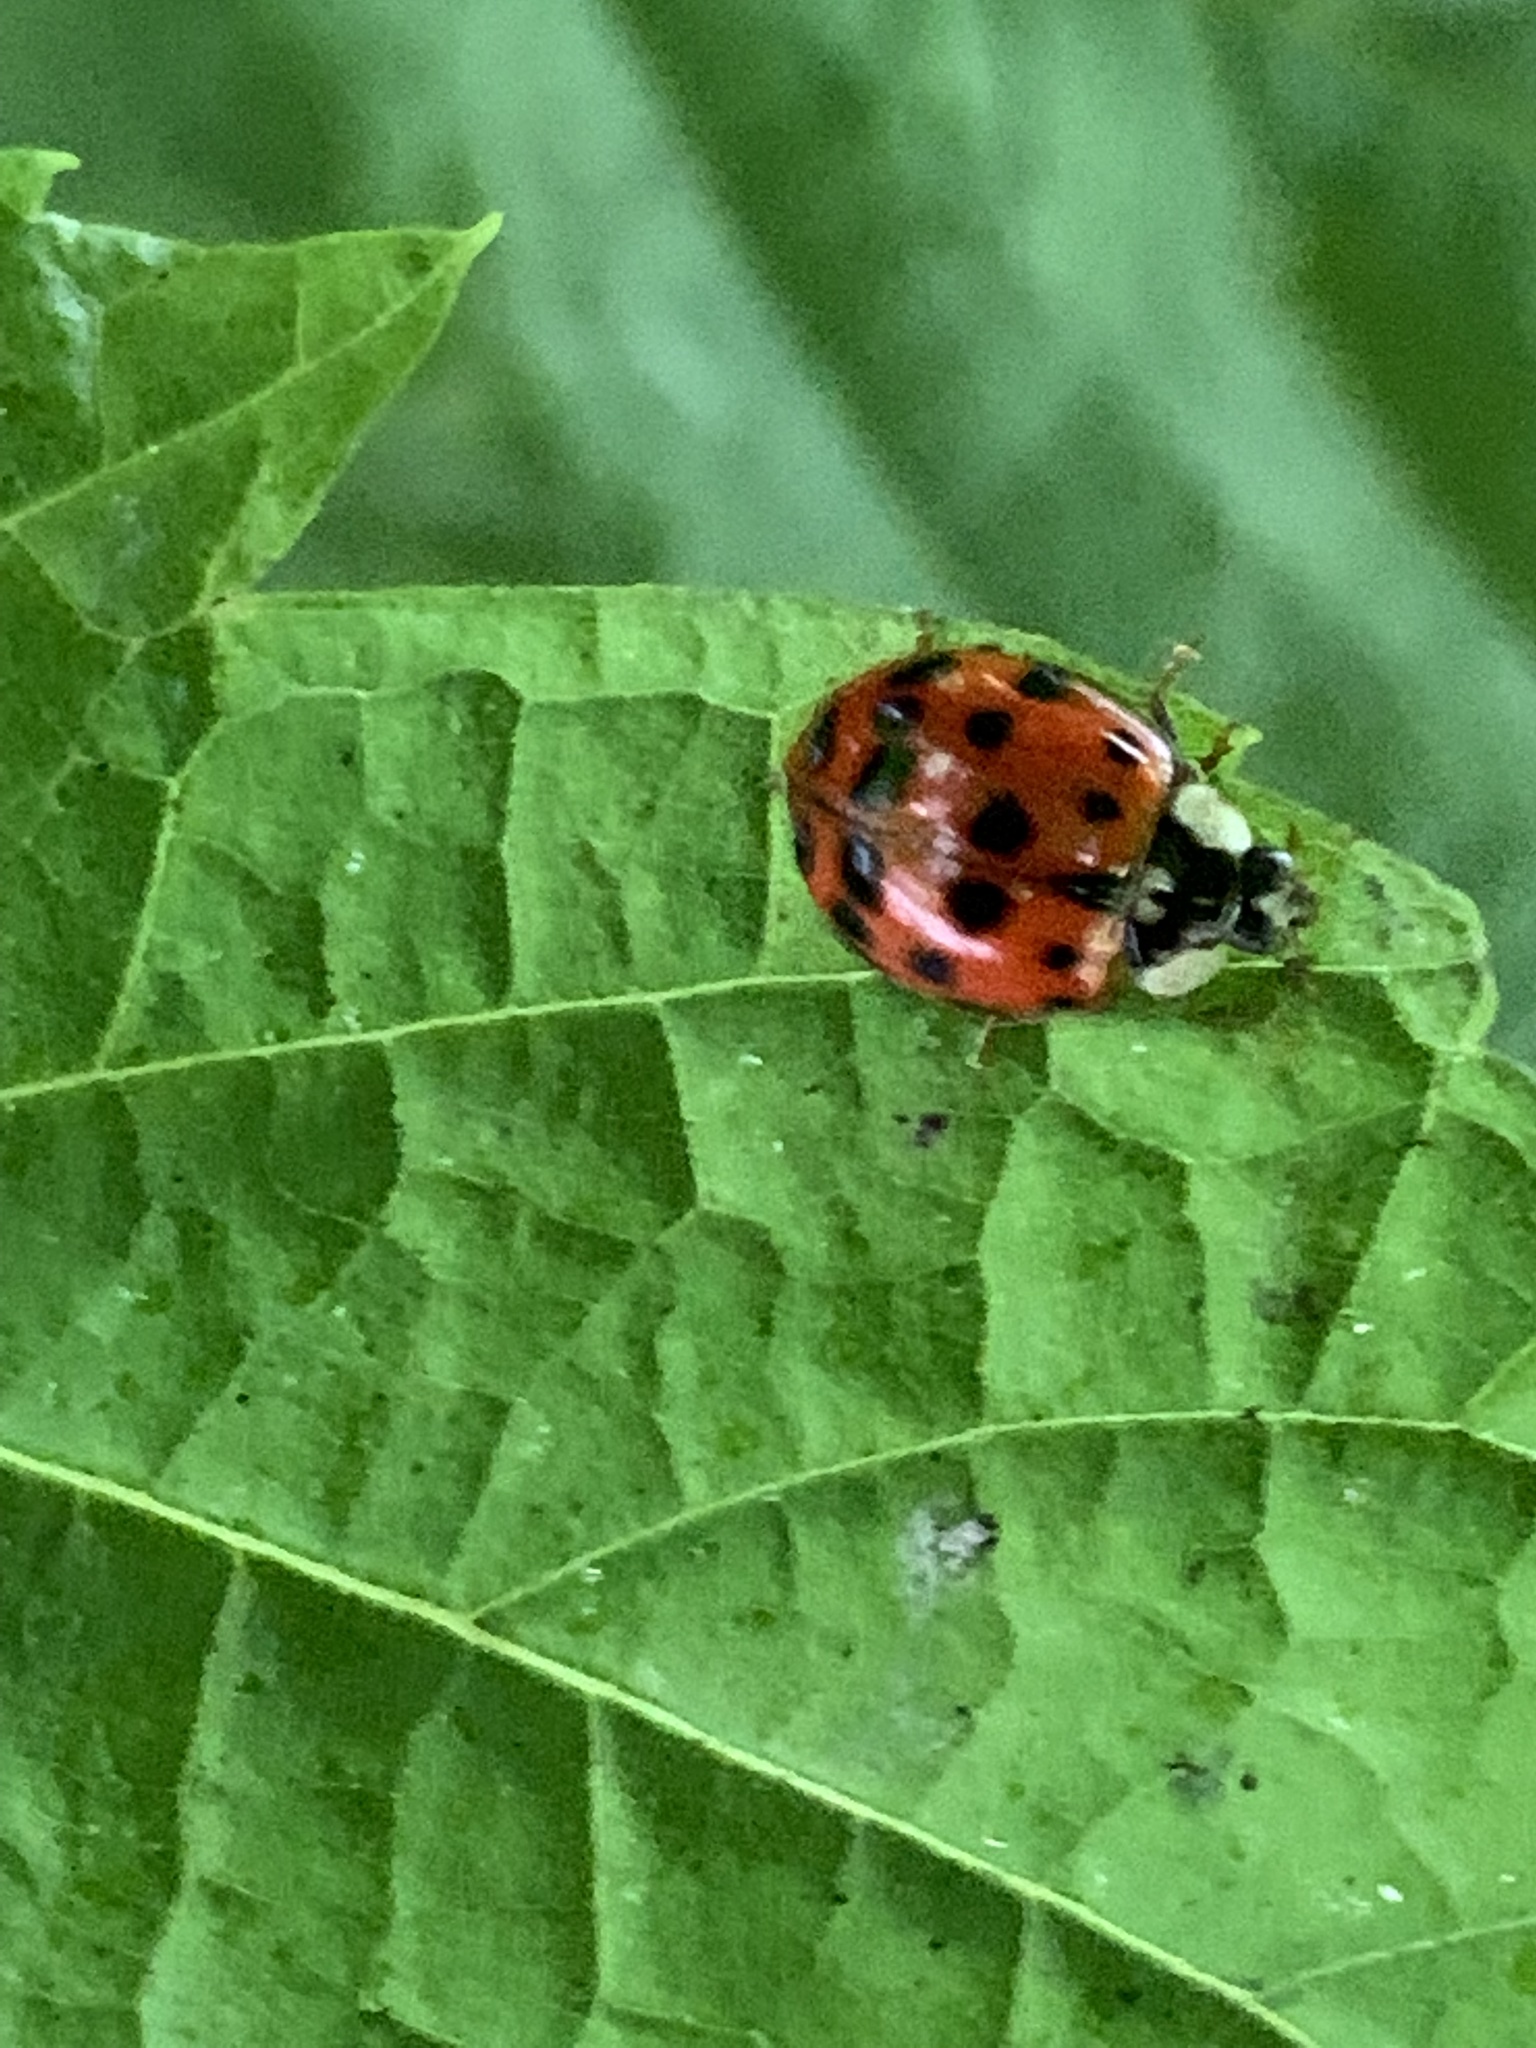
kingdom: Animalia
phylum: Arthropoda
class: Insecta
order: Coleoptera
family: Coccinellidae
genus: Harmonia
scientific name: Harmonia axyridis
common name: Harlequin ladybird
